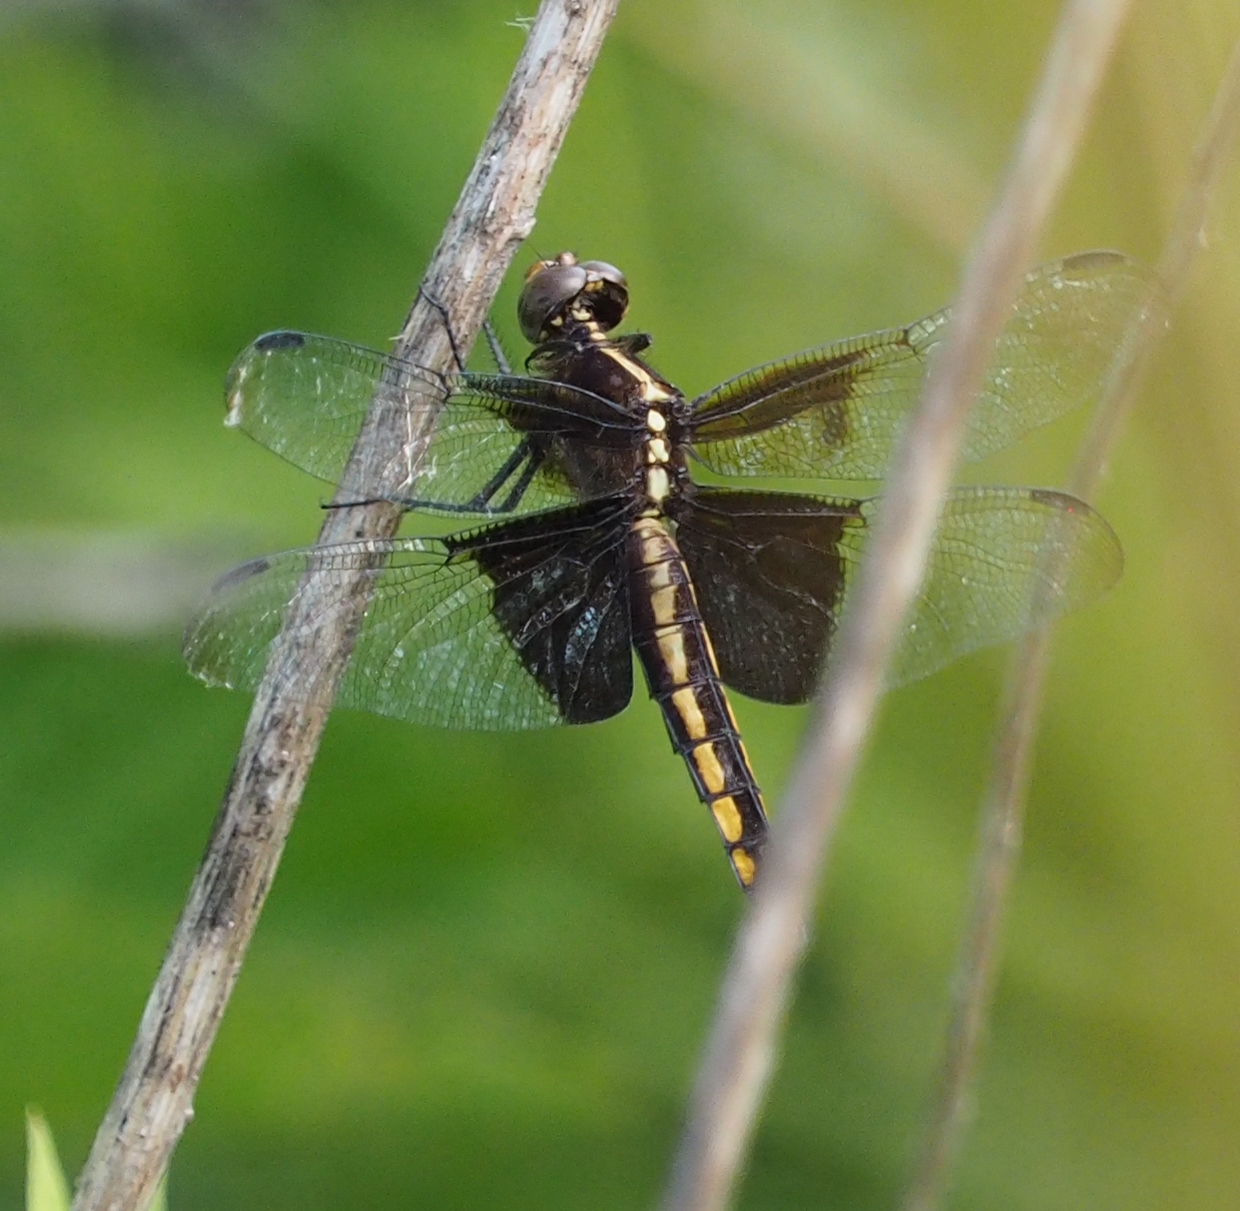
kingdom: Animalia
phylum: Arthropoda
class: Insecta
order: Odonata
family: Libellulidae
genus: Libellula
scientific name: Libellula luctuosa
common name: Widow skimmer
